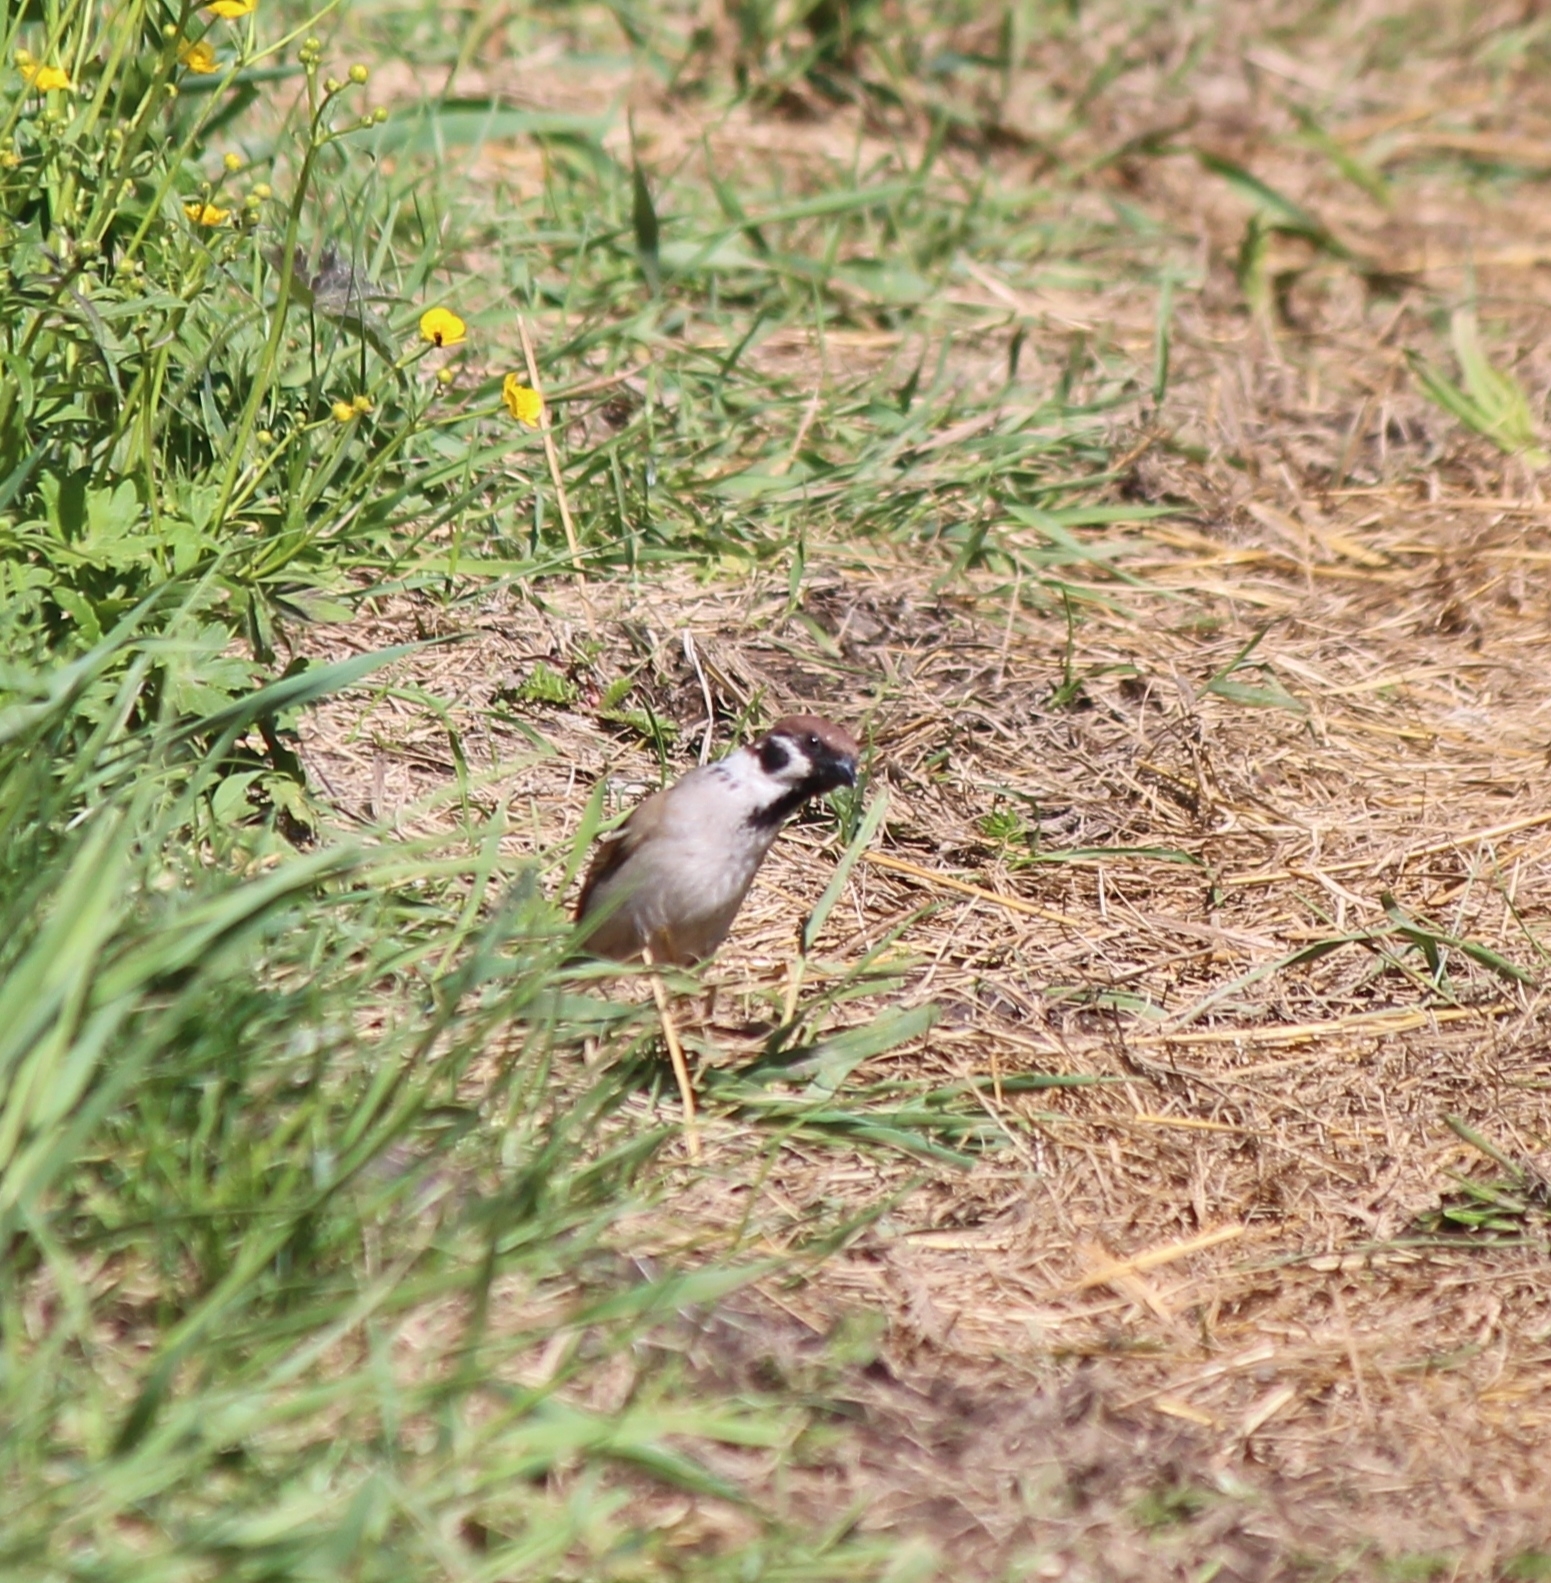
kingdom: Animalia
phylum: Chordata
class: Aves
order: Passeriformes
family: Passeridae
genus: Passer
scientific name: Passer montanus
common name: Eurasian tree sparrow
